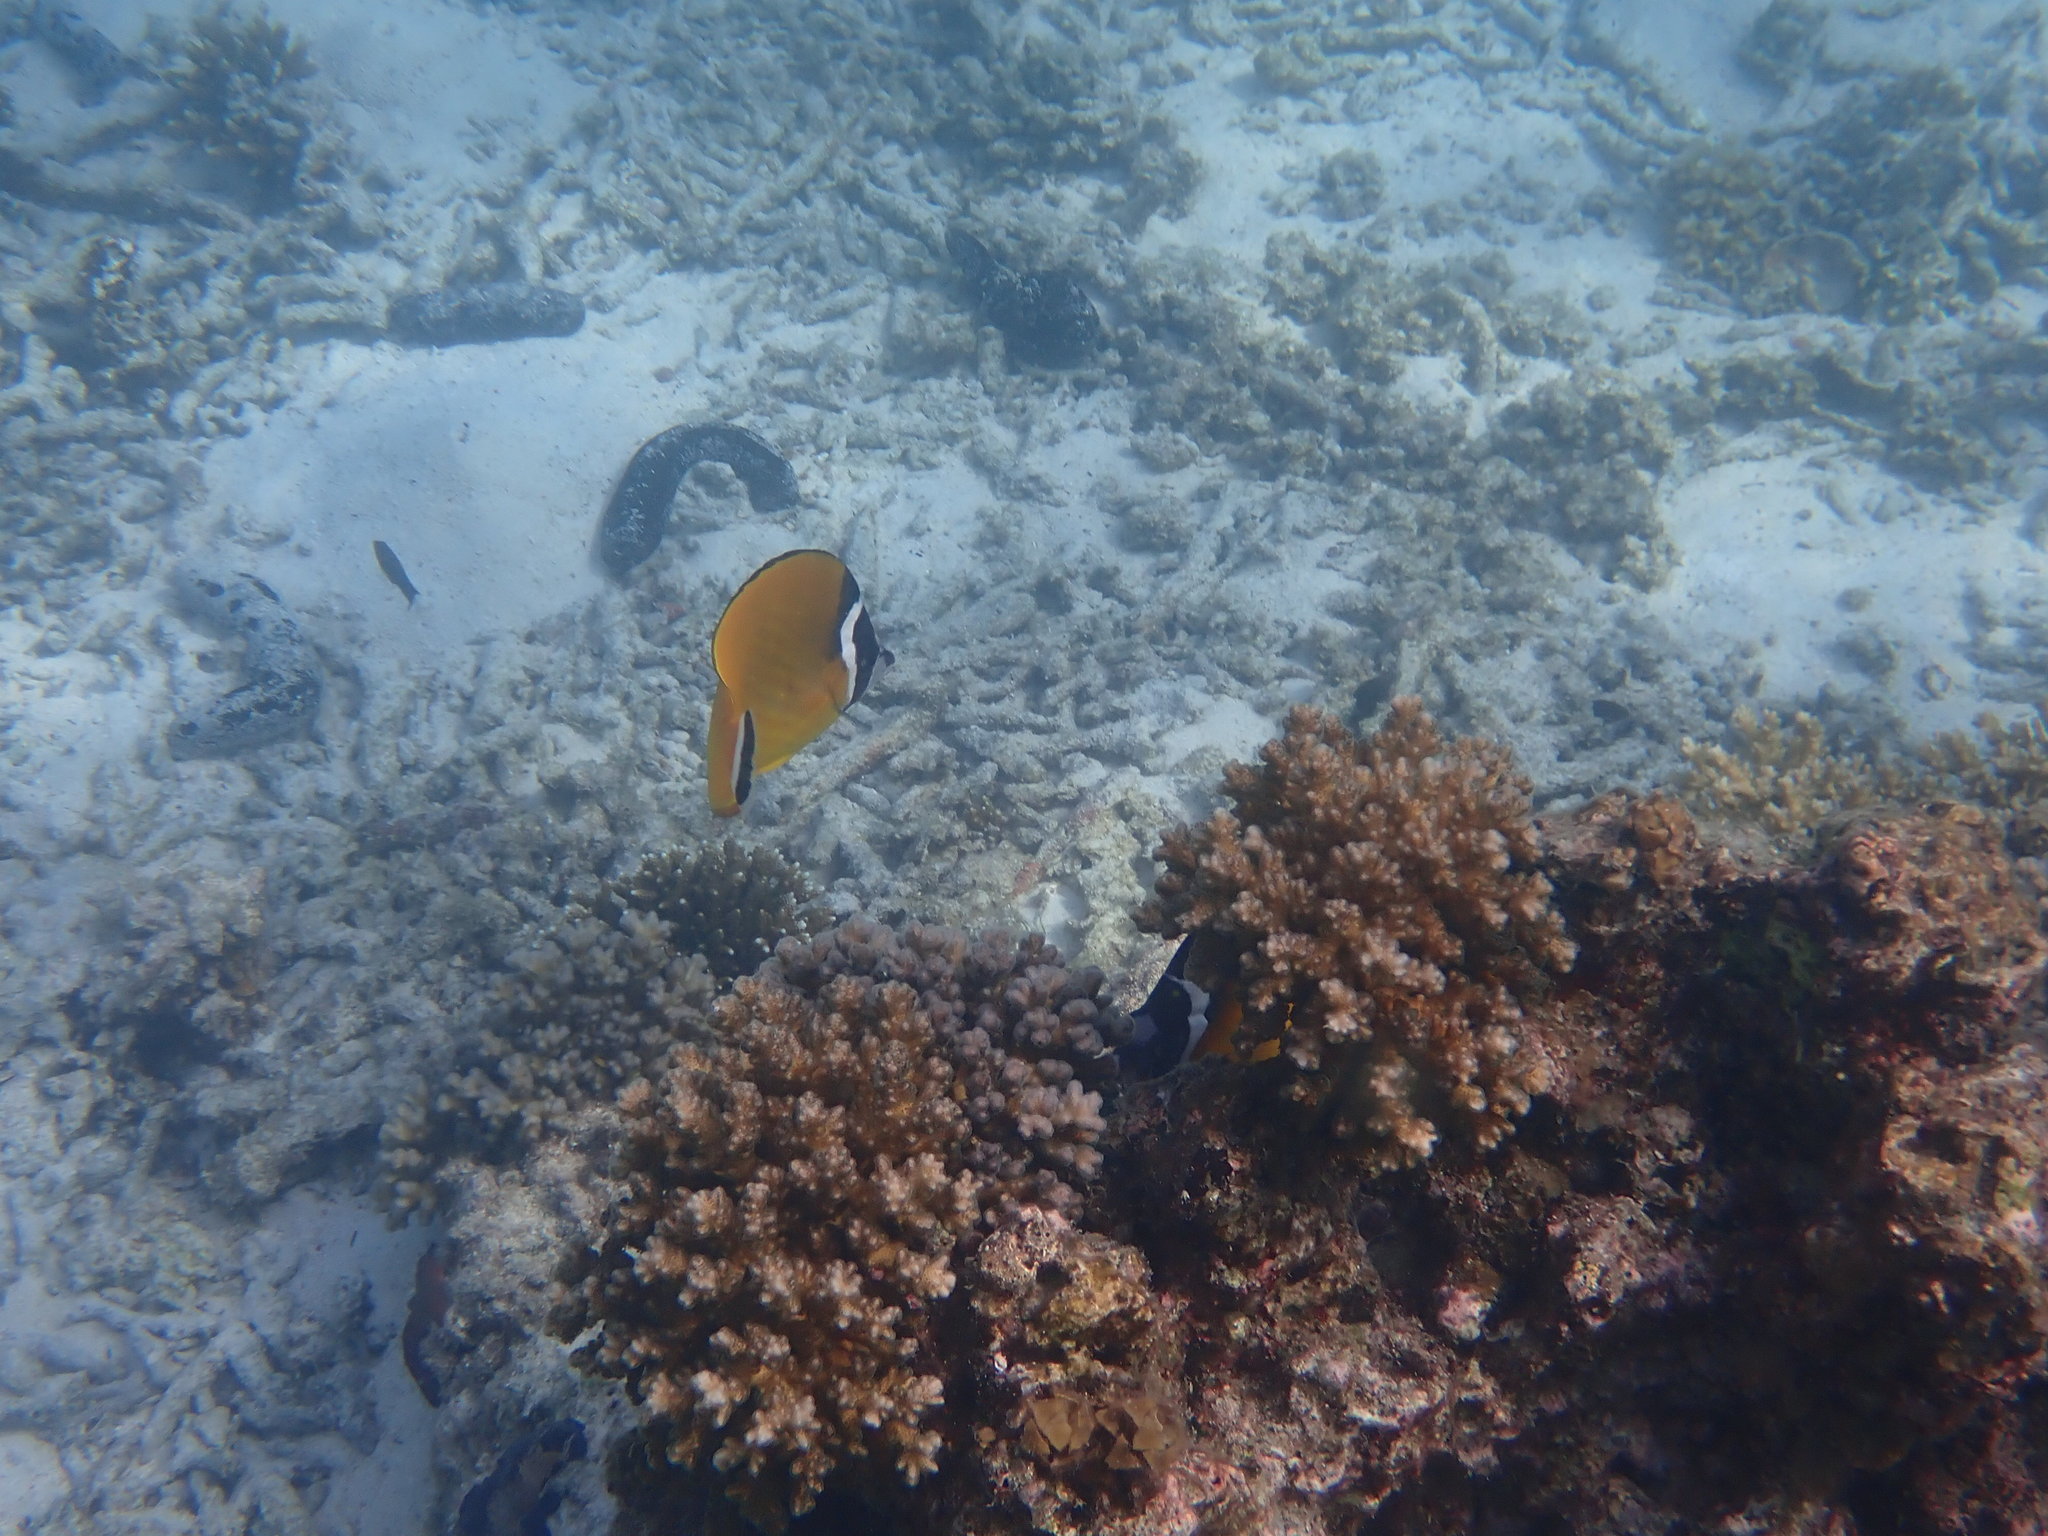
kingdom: Animalia
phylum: Chordata
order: Perciformes
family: Chaetodontidae
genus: Chaetodon
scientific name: Chaetodon wiebeli
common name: Butterflyfish
